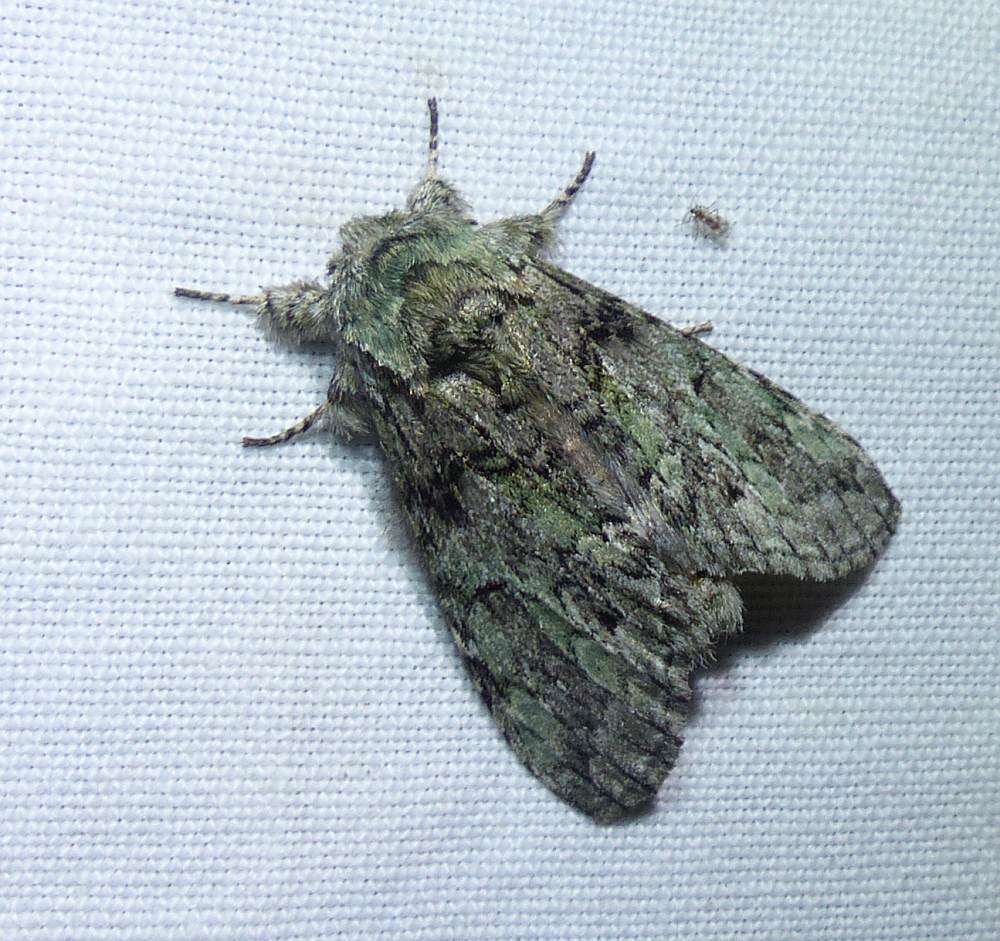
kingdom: Animalia
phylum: Arthropoda
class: Insecta
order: Lepidoptera
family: Notodontidae
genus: Macrurocampa
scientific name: Macrurocampa marthesia
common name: Mottled prominent
